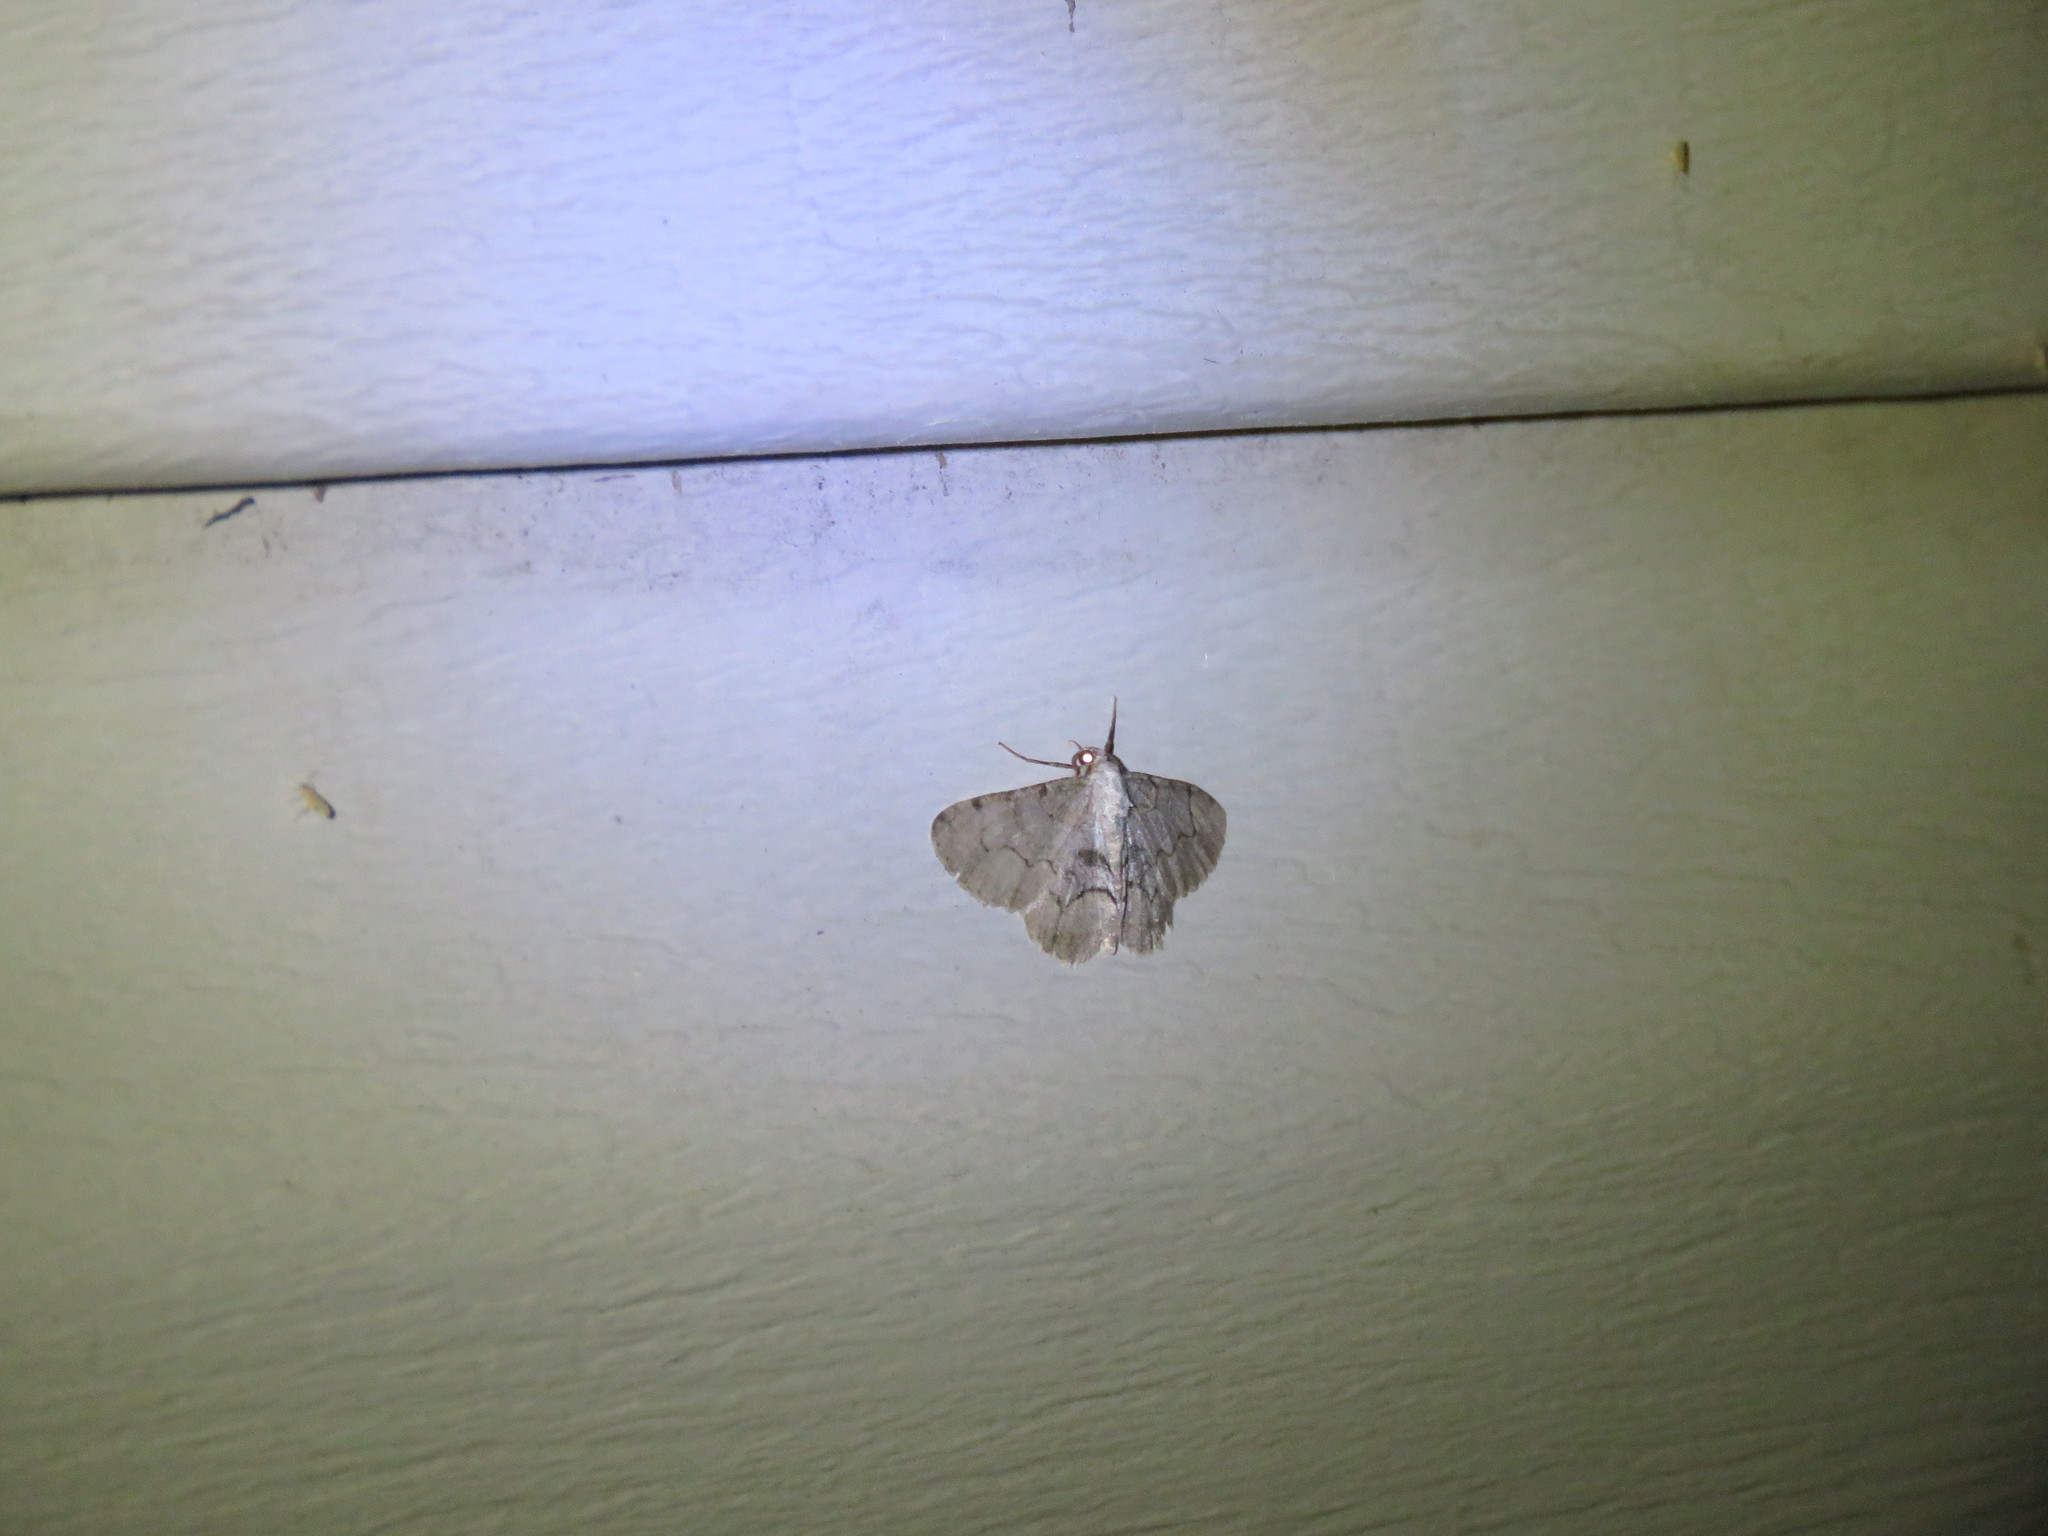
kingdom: Animalia
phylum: Arthropoda
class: Insecta
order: Lepidoptera
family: Geometridae
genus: Iridopsis
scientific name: Iridopsis larvaria
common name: Bent-line gray
